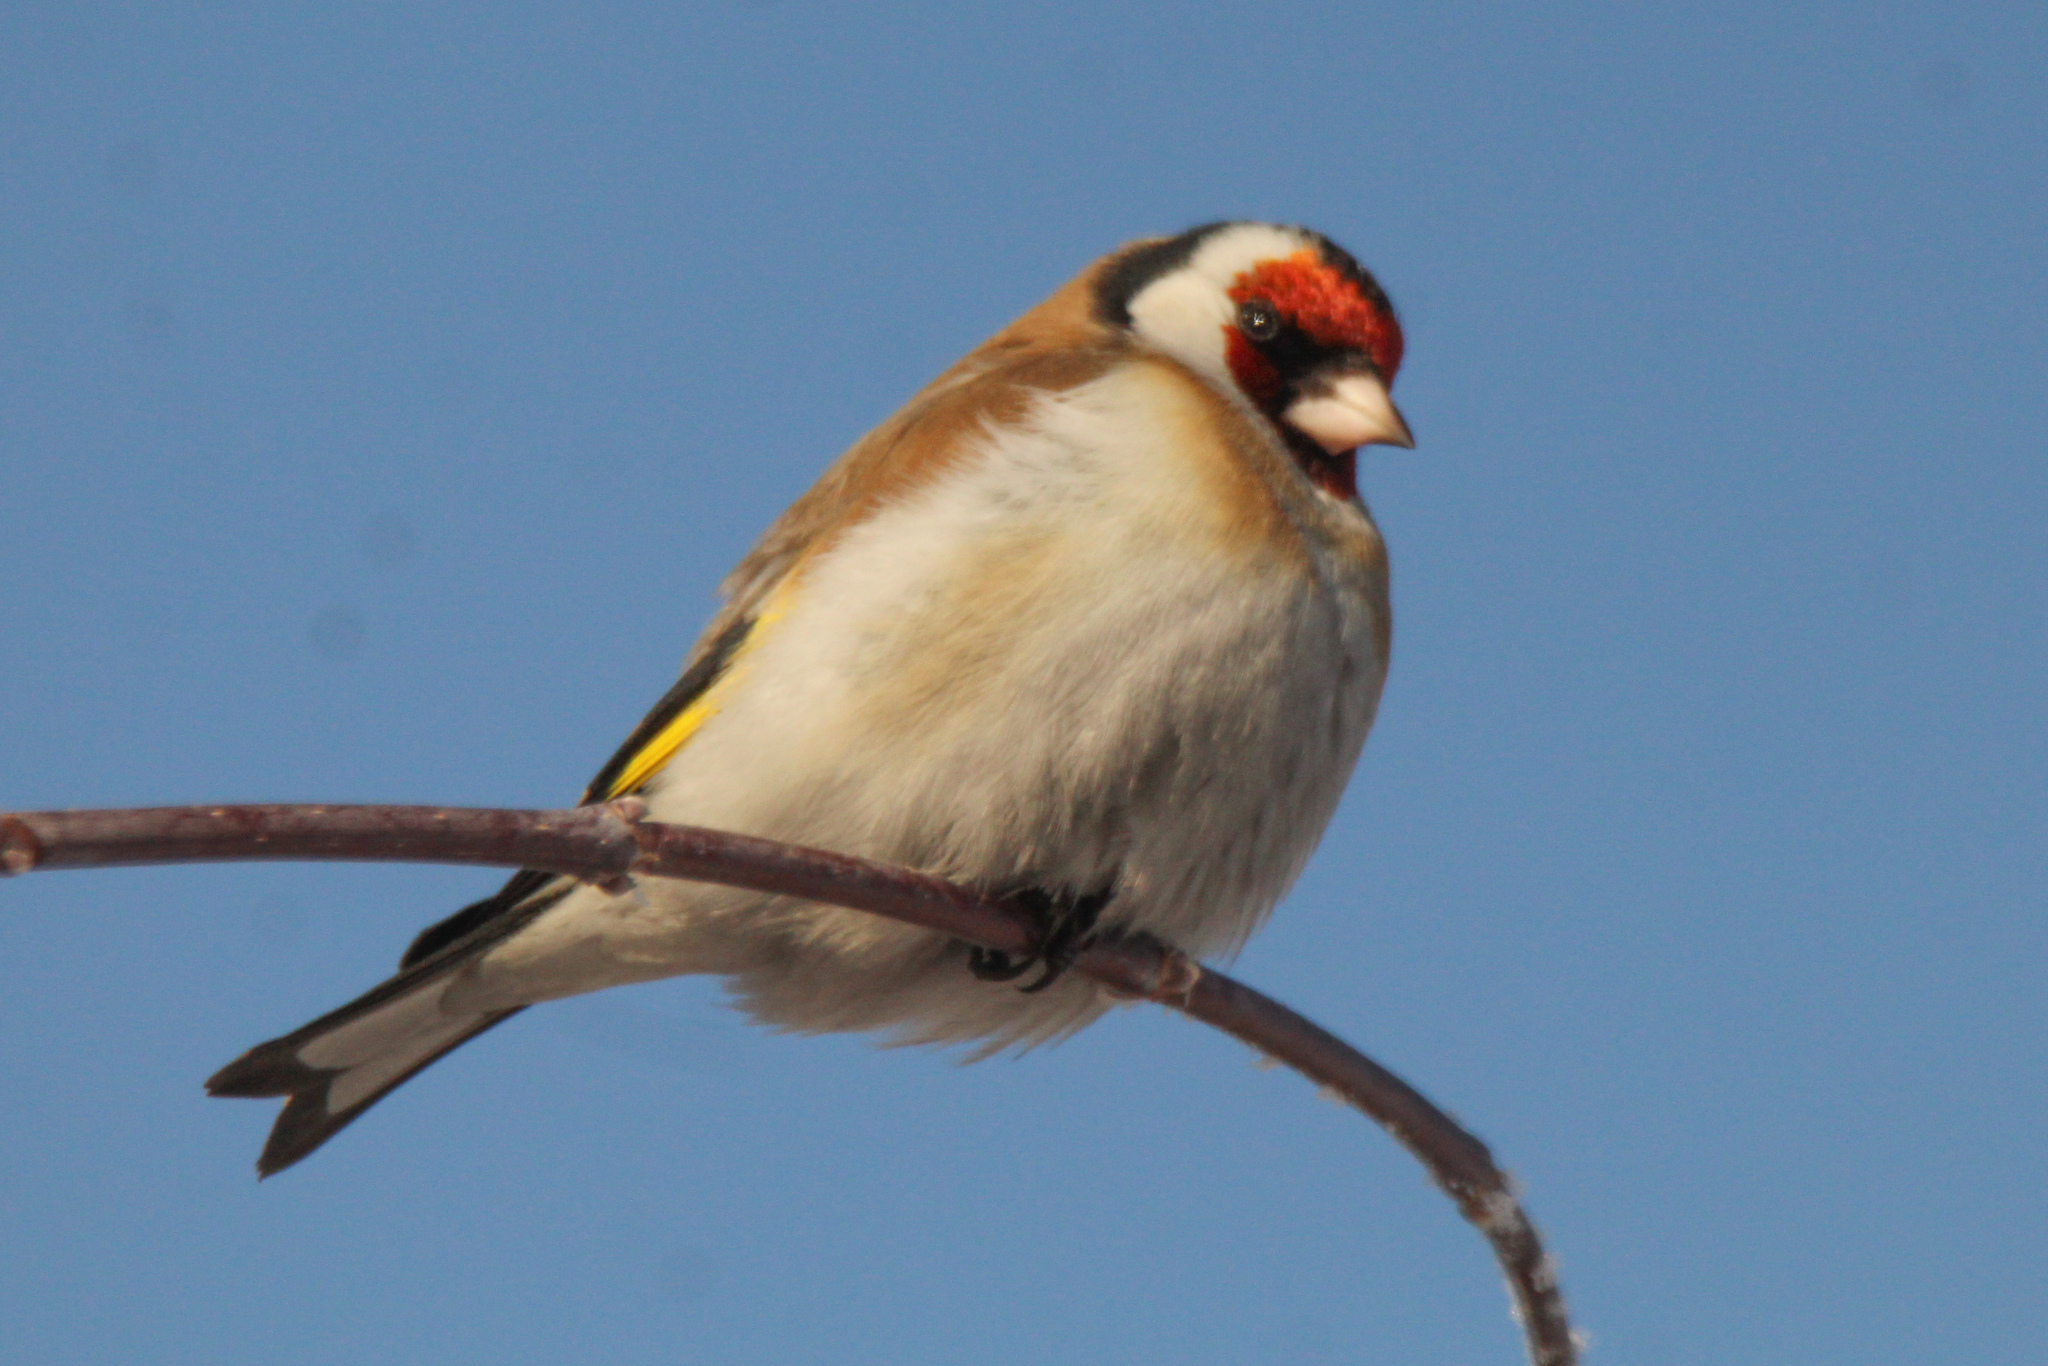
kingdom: Animalia
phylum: Chordata
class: Aves
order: Passeriformes
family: Fringillidae
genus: Carduelis
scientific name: Carduelis carduelis
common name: European goldfinch
